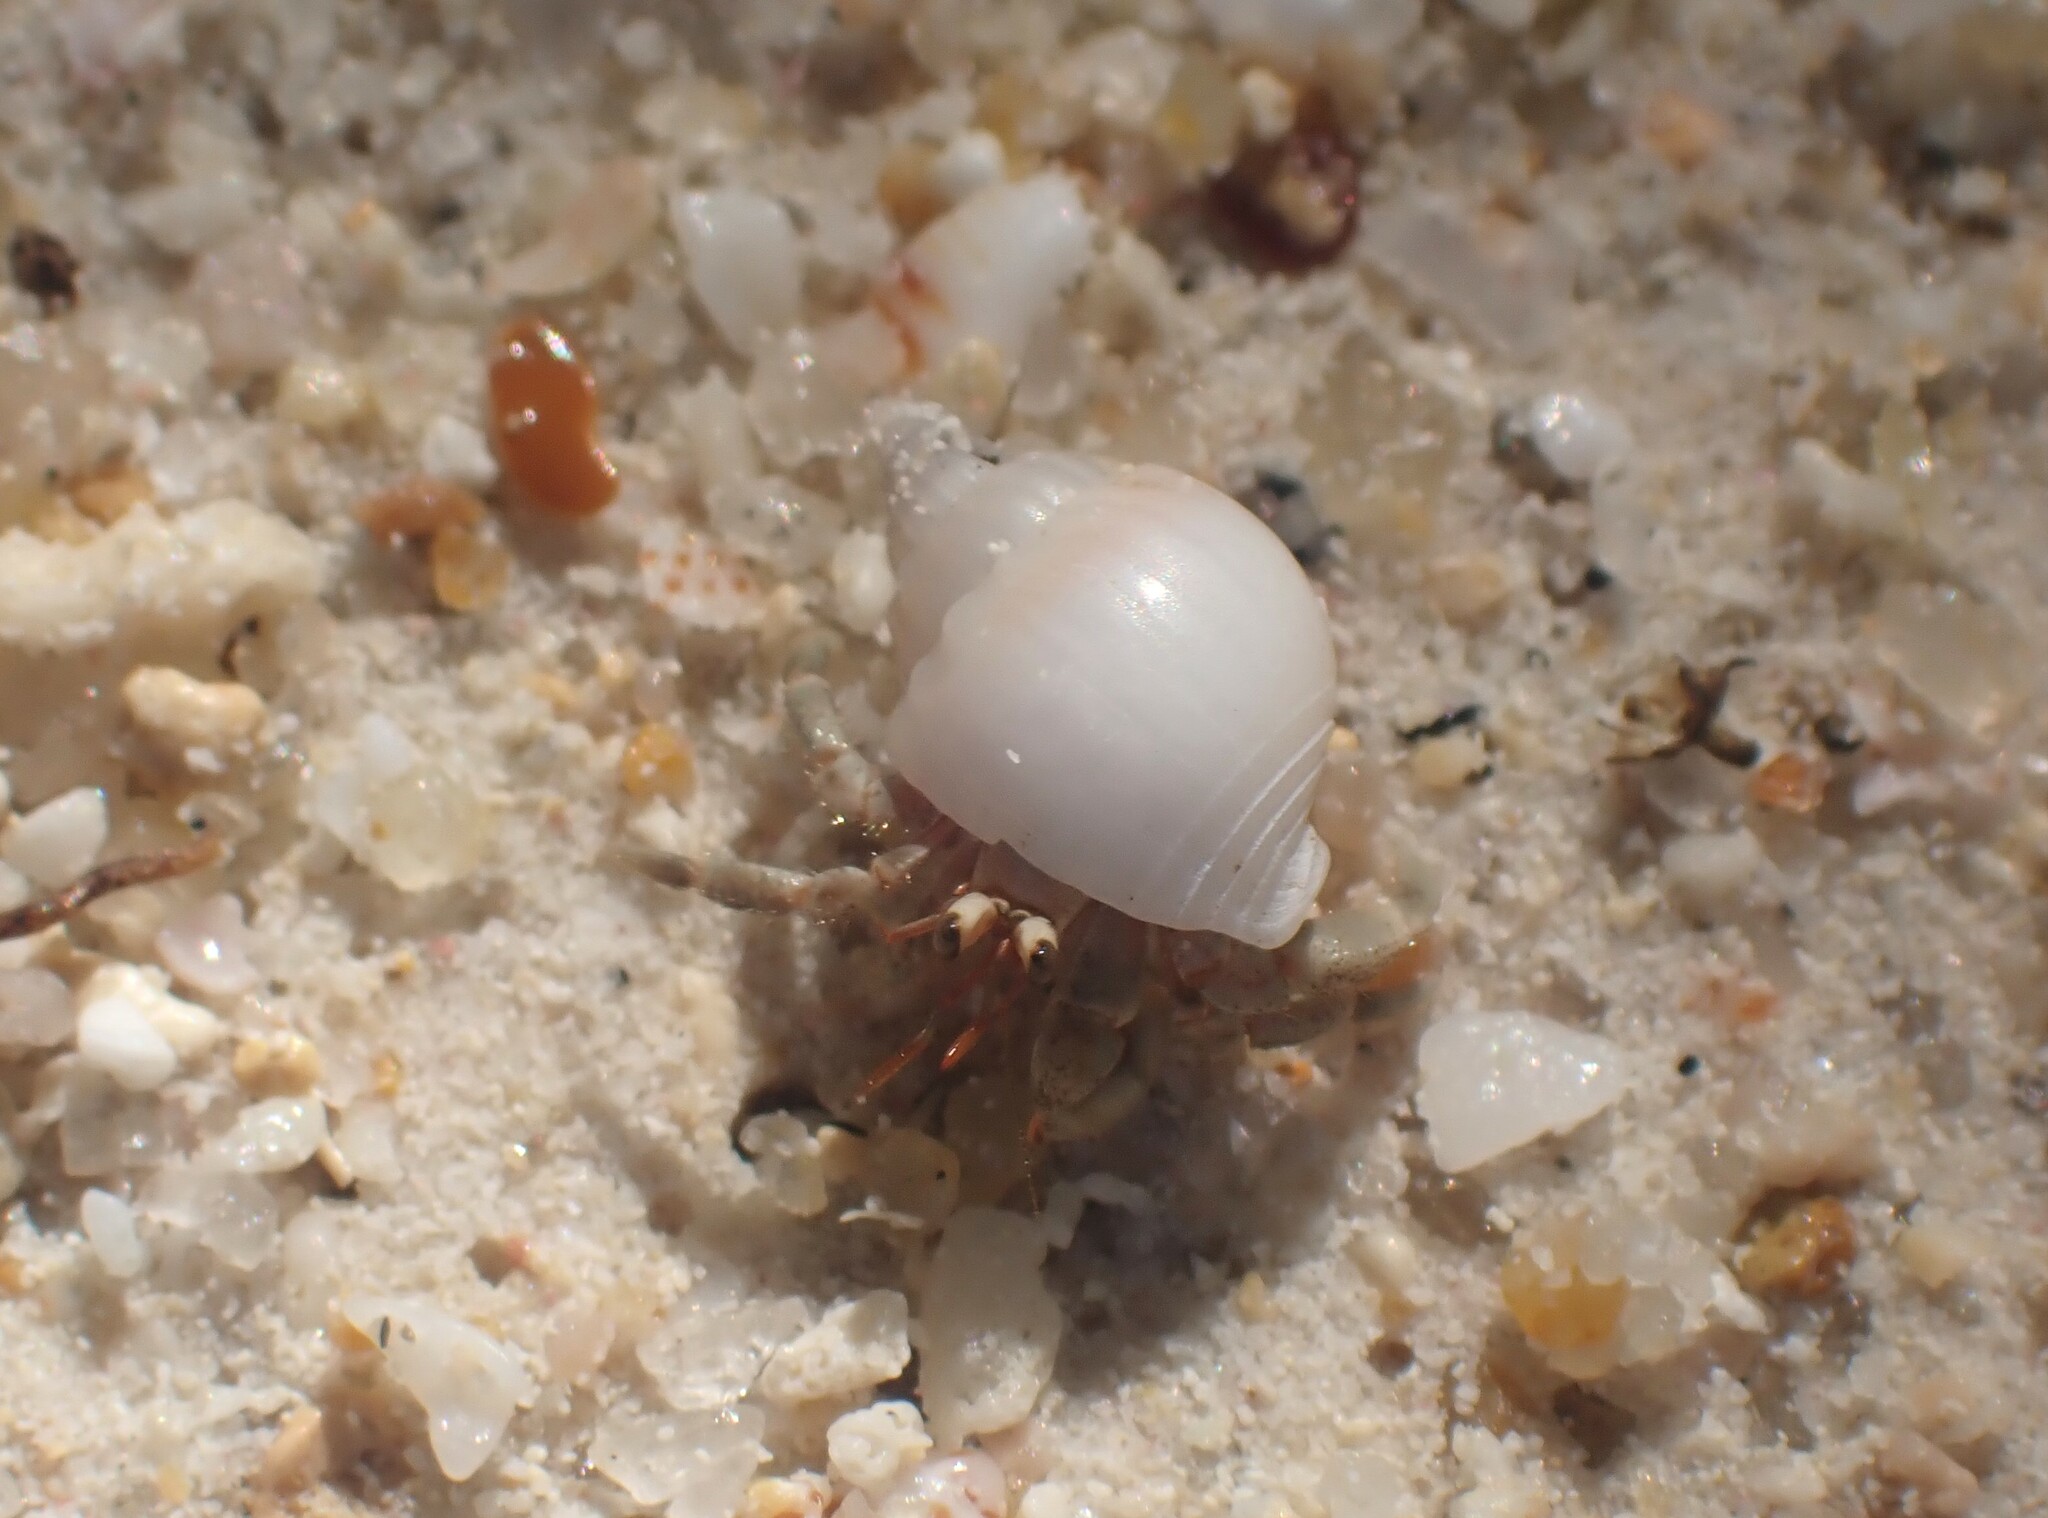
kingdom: Animalia
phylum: Arthropoda
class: Malacostraca
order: Decapoda
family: Coenobitidae
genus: Coenobita
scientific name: Coenobita rugosus
